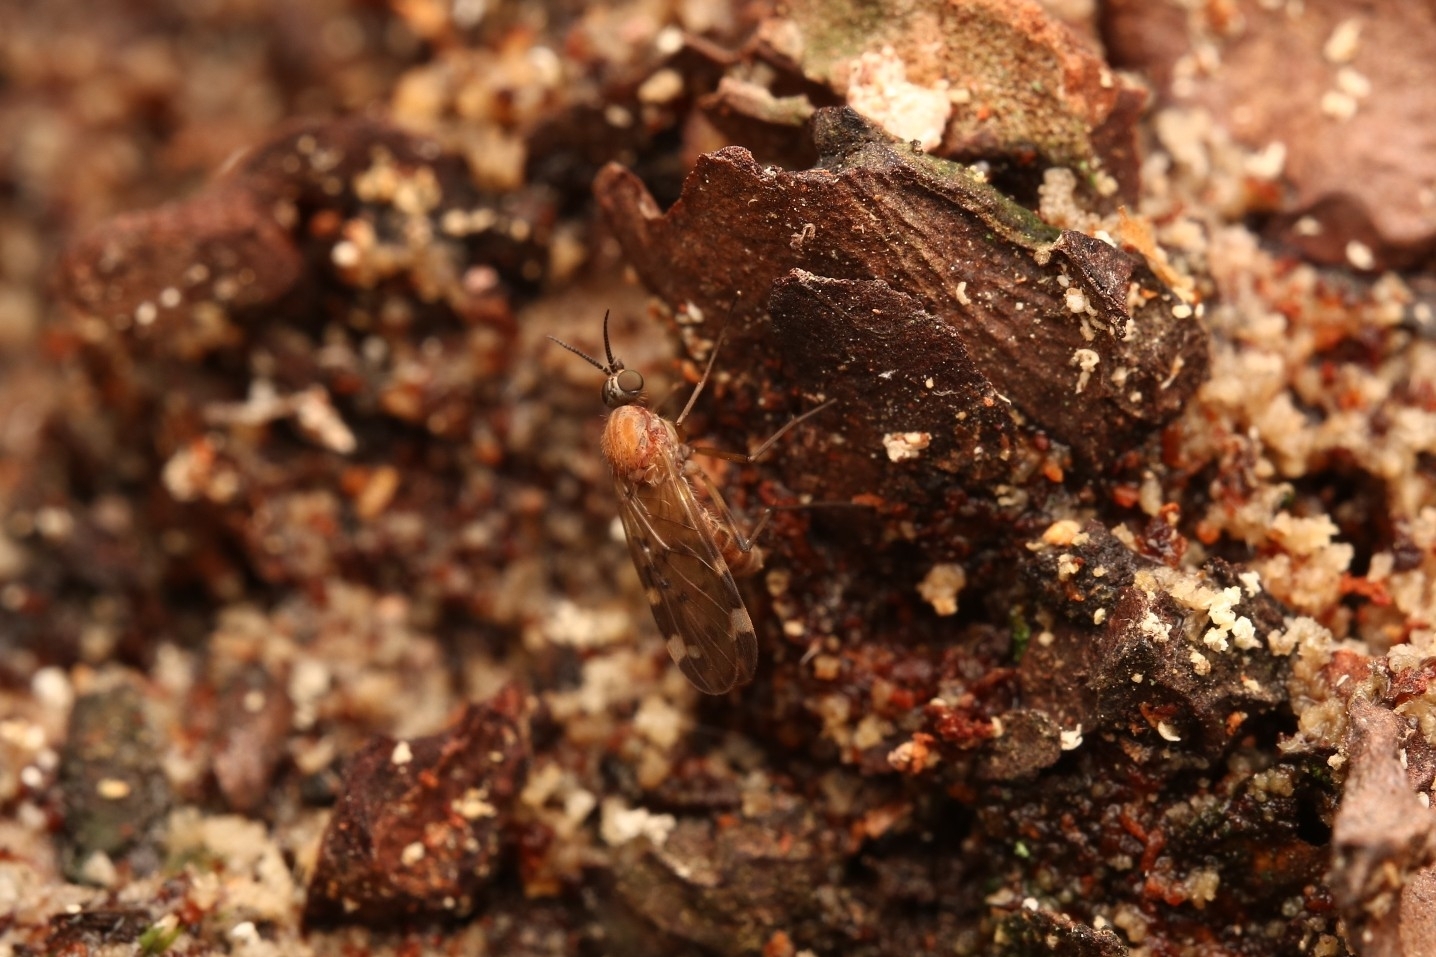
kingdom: Animalia
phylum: Arthropoda
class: Insecta
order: Diptera
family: Anisopodidae
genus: Sylvicola
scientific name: Sylvicola alternata
